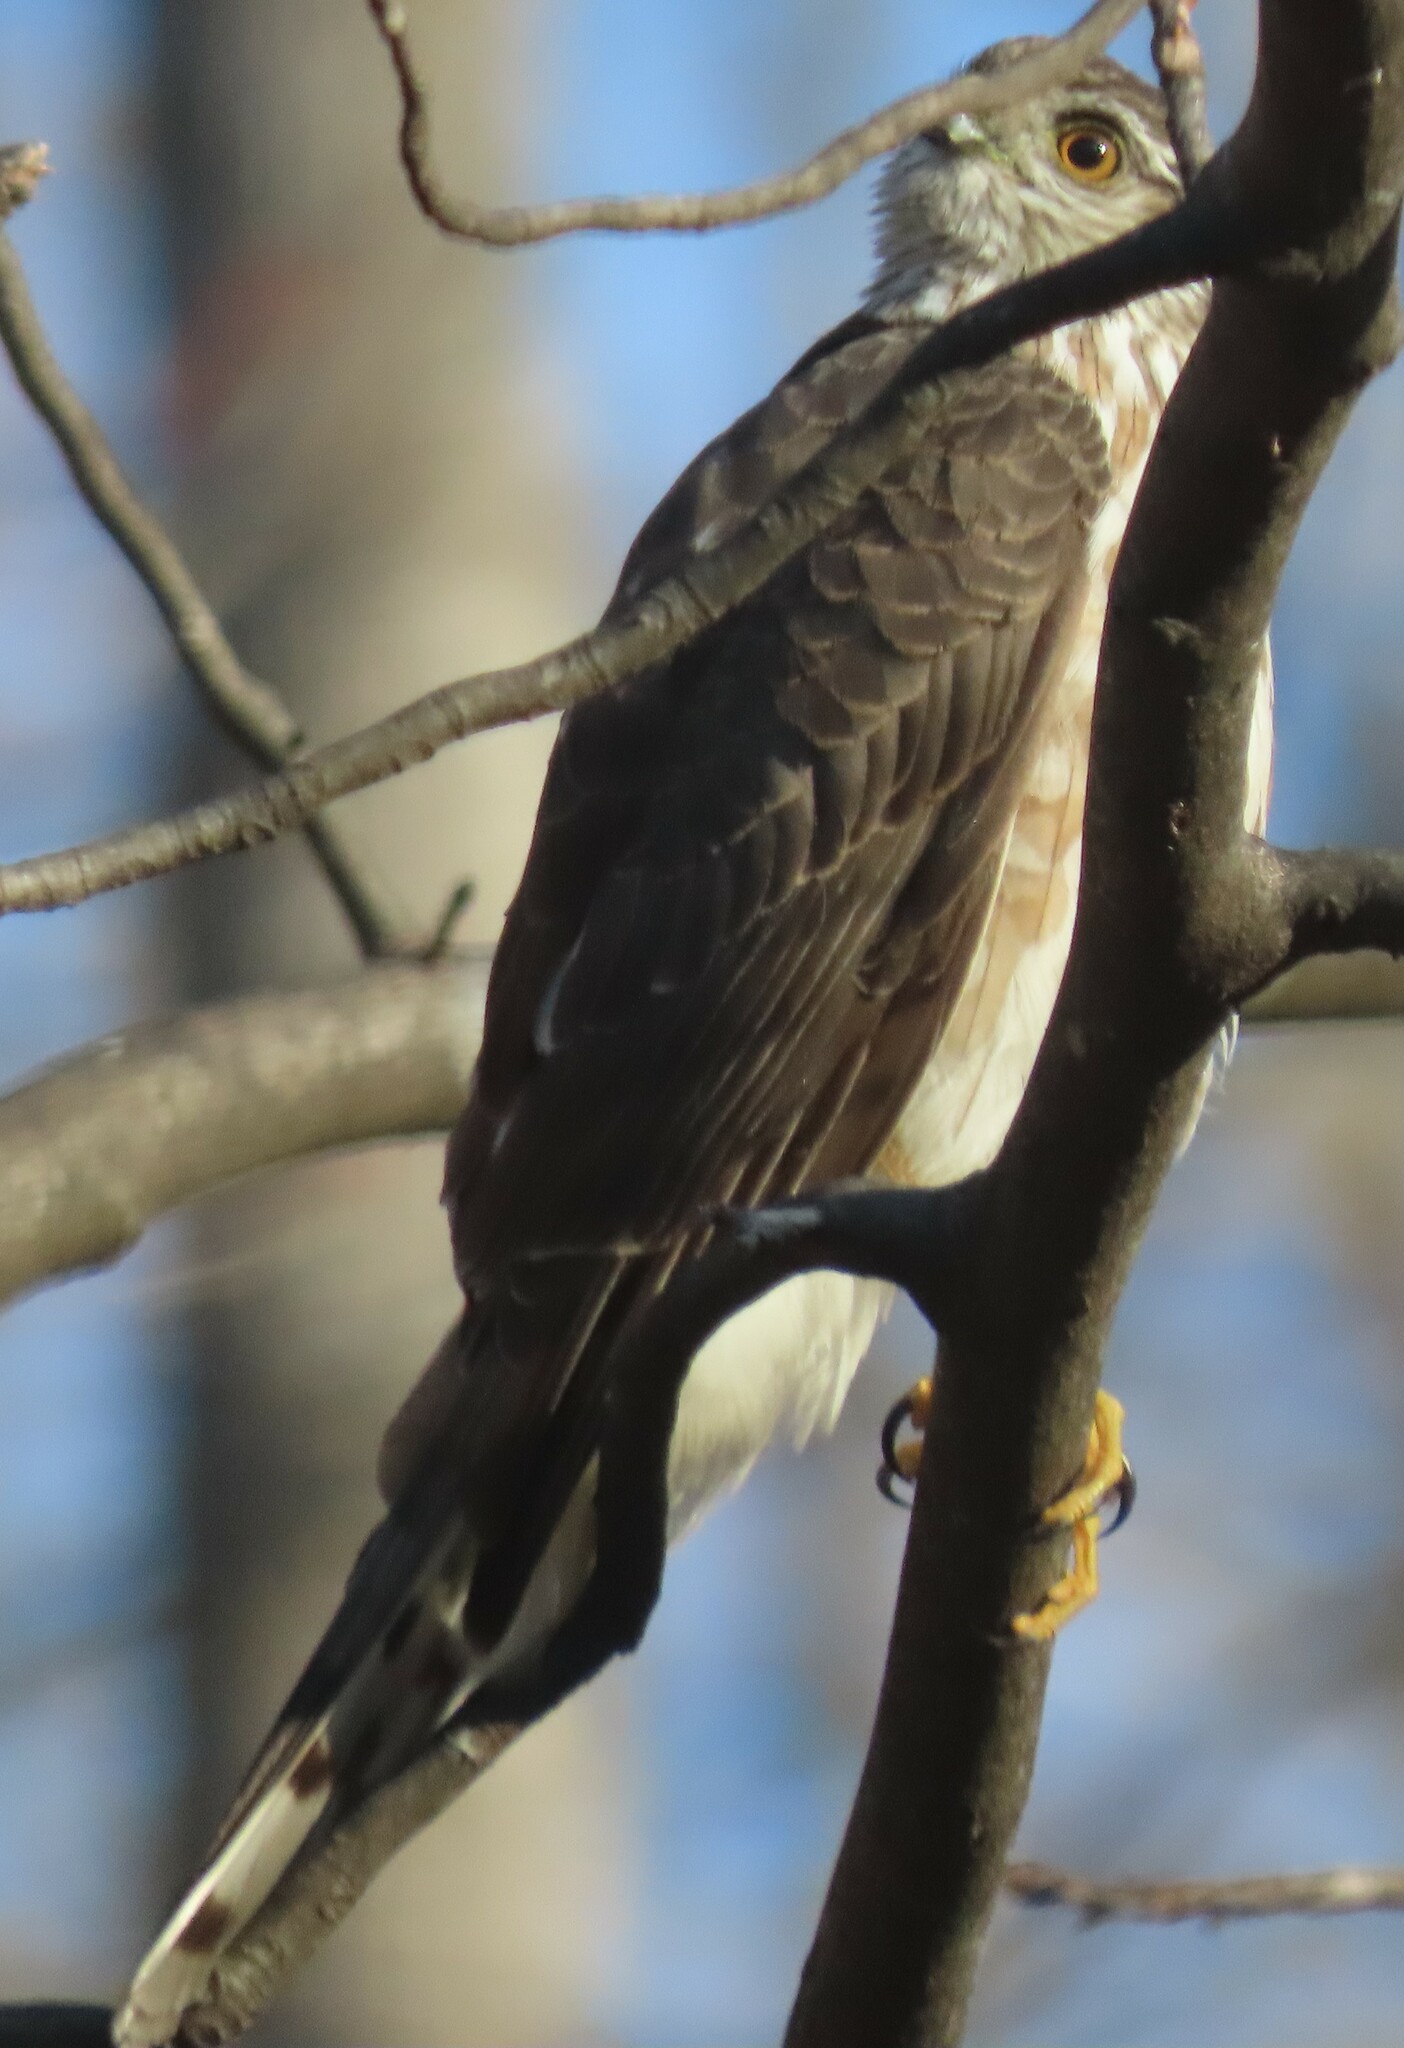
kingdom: Animalia
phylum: Chordata
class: Aves
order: Accipitriformes
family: Accipitridae
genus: Accipiter
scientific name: Accipiter striatus
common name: Sharp-shinned hawk
